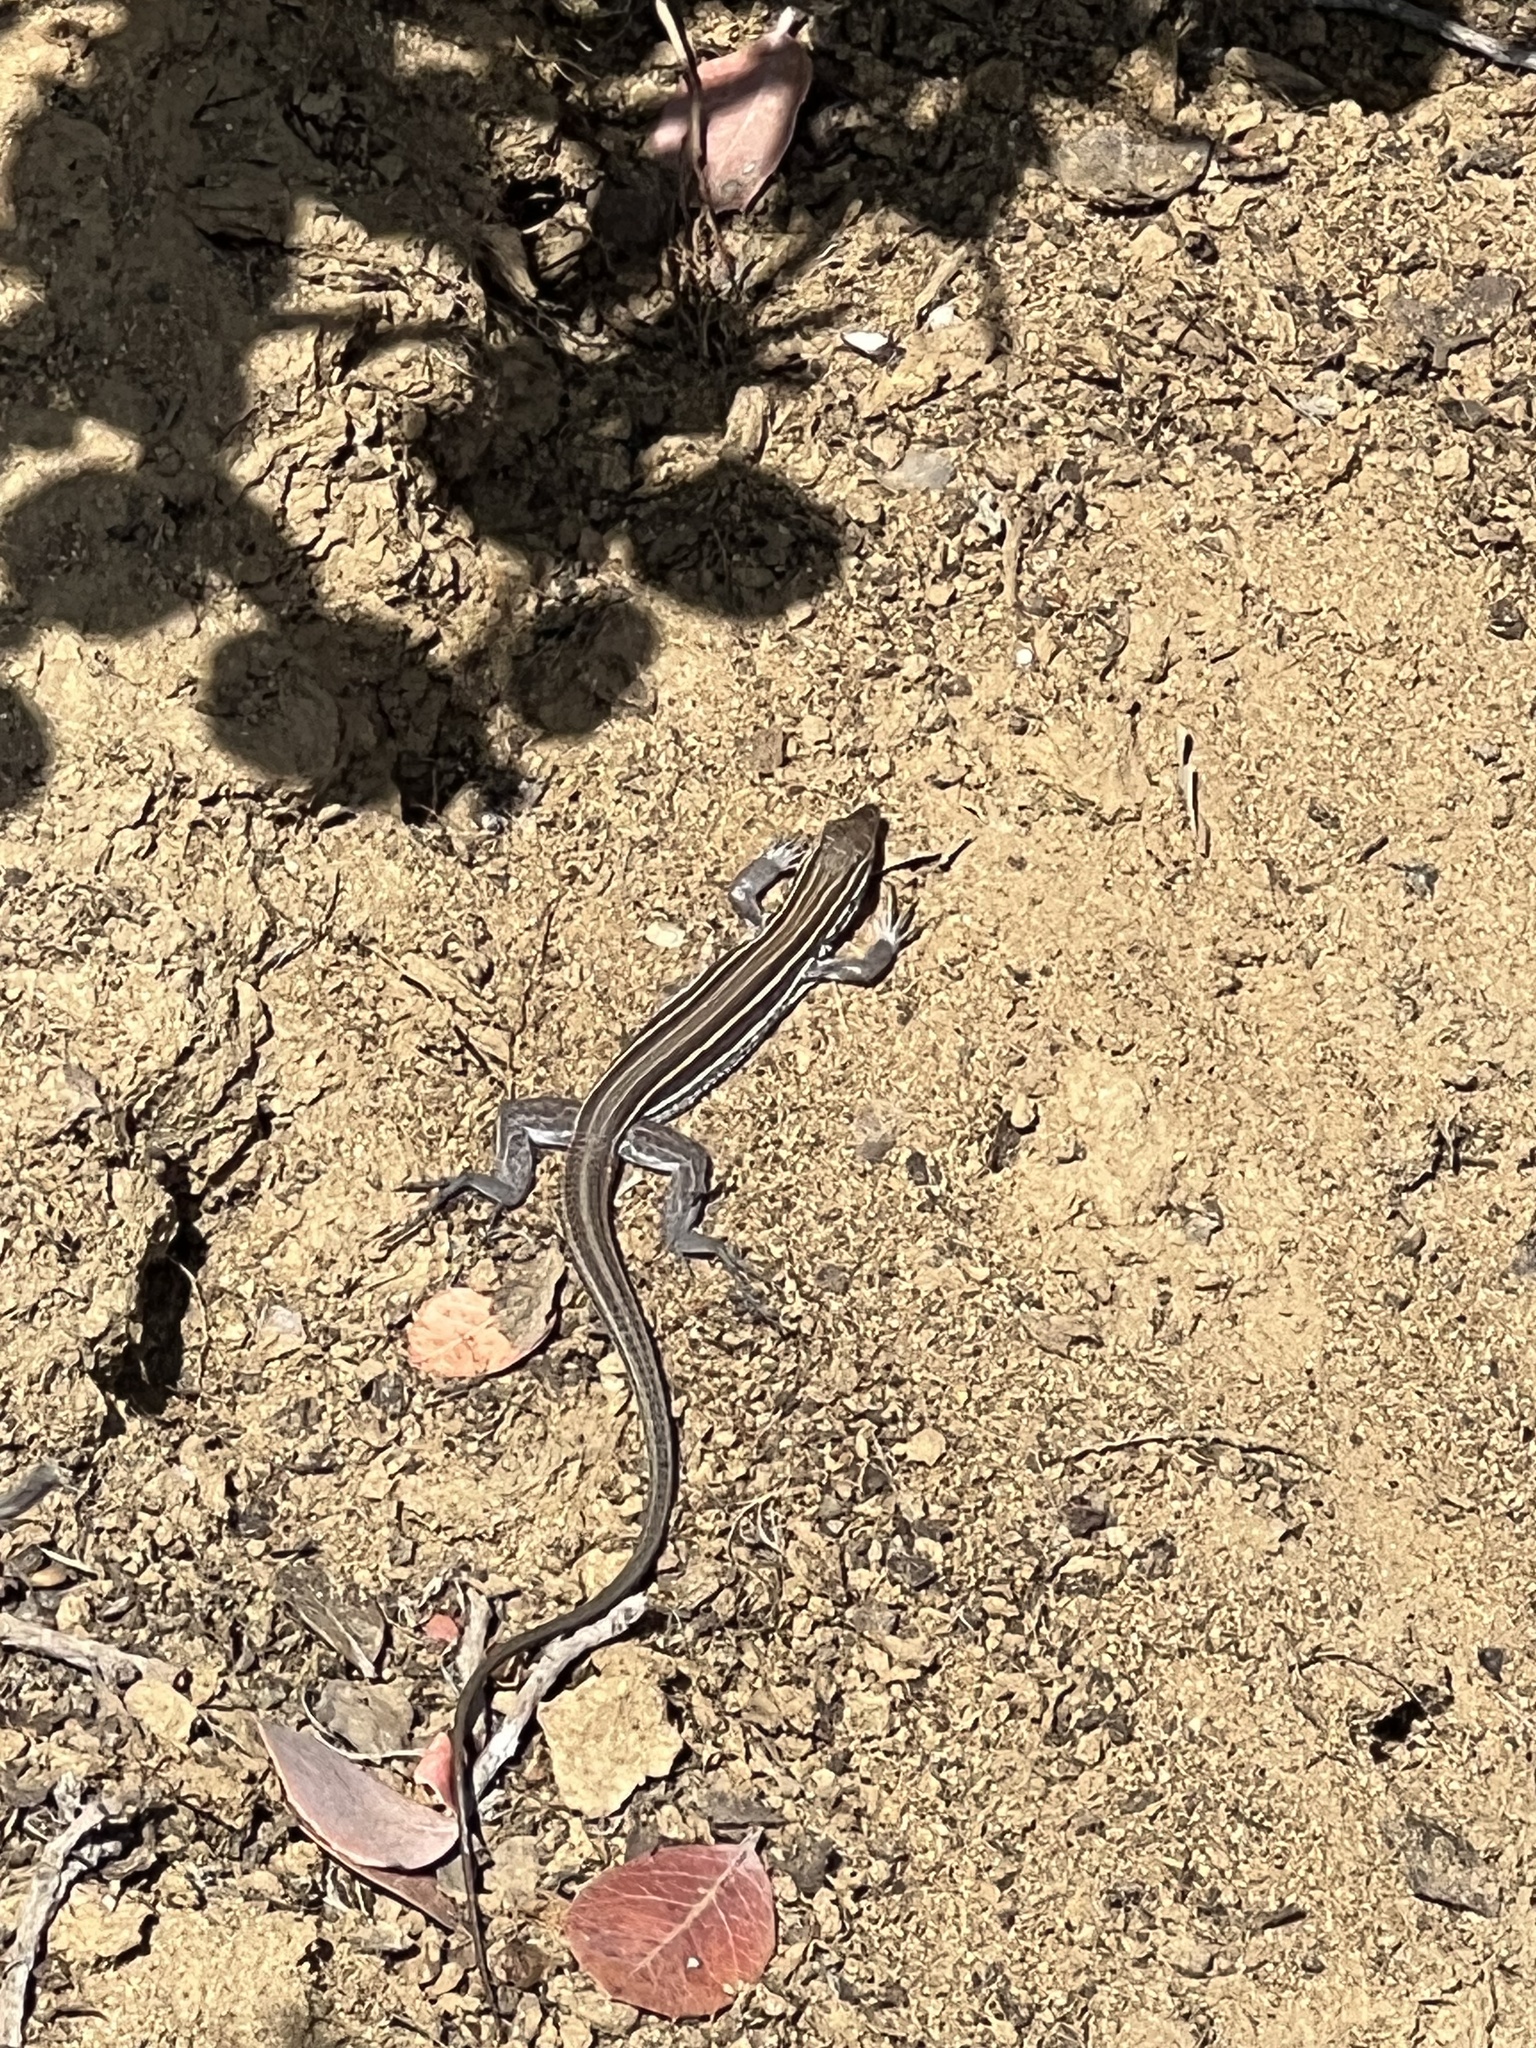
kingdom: Animalia
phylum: Chordata
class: Squamata
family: Teiidae
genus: Aspidoscelis
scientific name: Aspidoscelis hyperythrus
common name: Orange-throated race-runner
